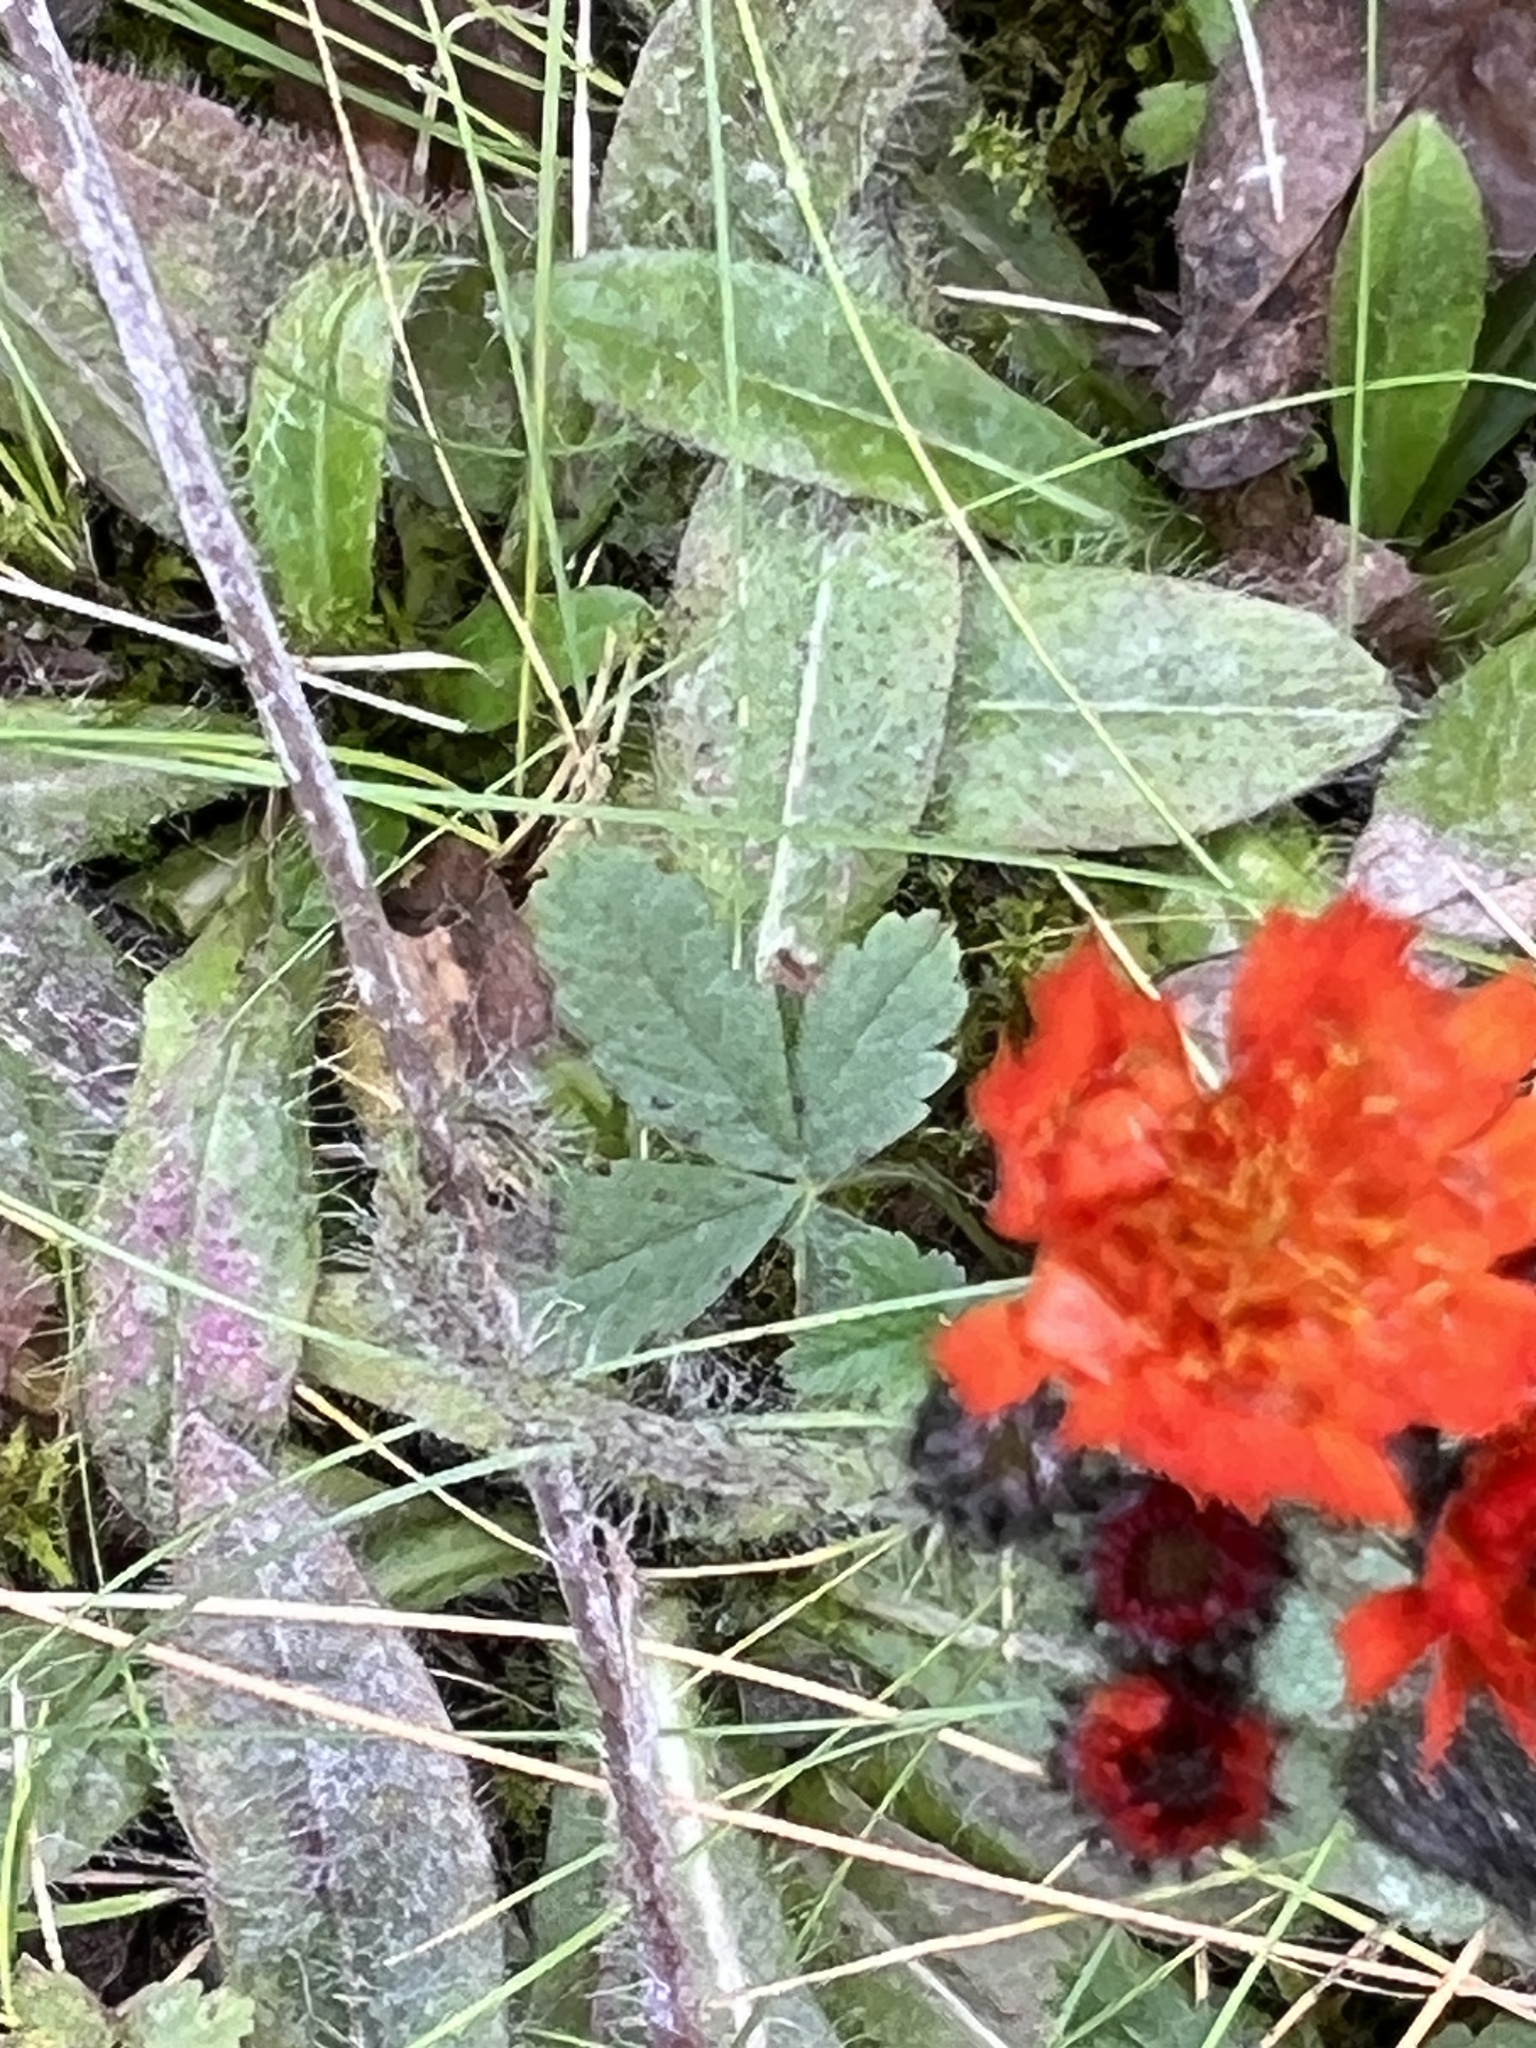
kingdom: Plantae
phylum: Tracheophyta
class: Magnoliopsida
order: Asterales
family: Asteraceae
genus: Pilosella
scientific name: Pilosella aurantiaca
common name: Fox-and-cubs
